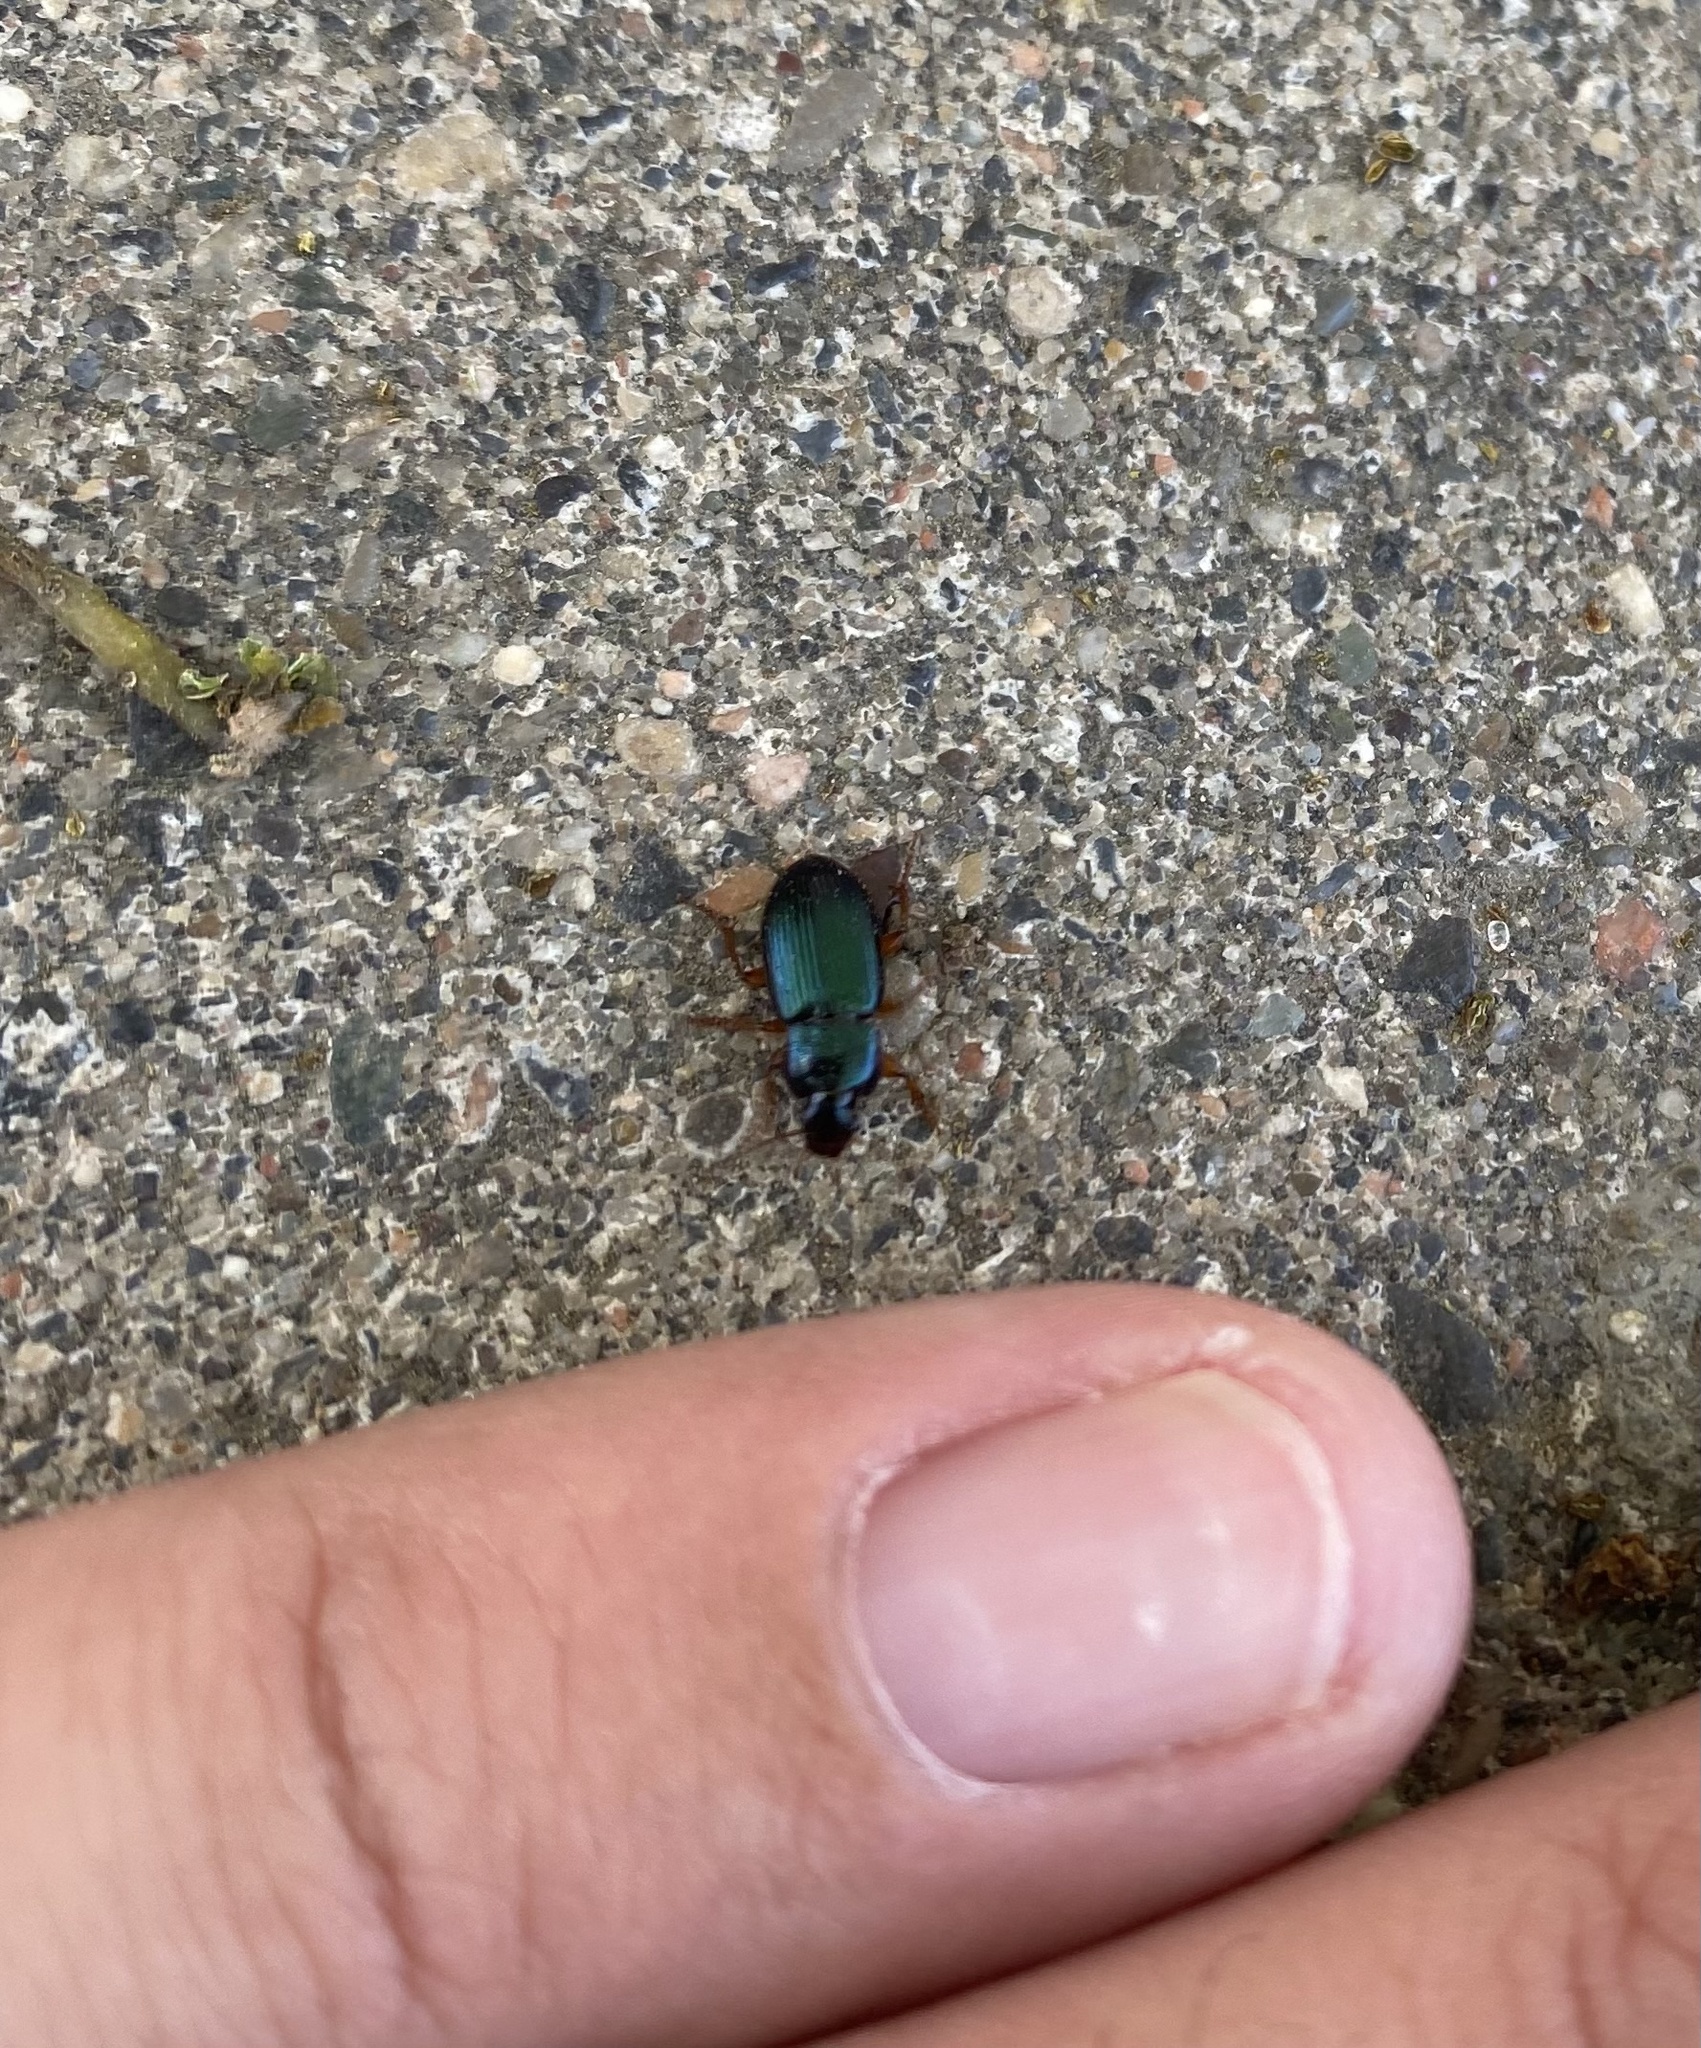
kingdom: Animalia
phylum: Arthropoda
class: Insecta
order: Coleoptera
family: Carabidae
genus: Ophonus
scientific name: Ophonus
